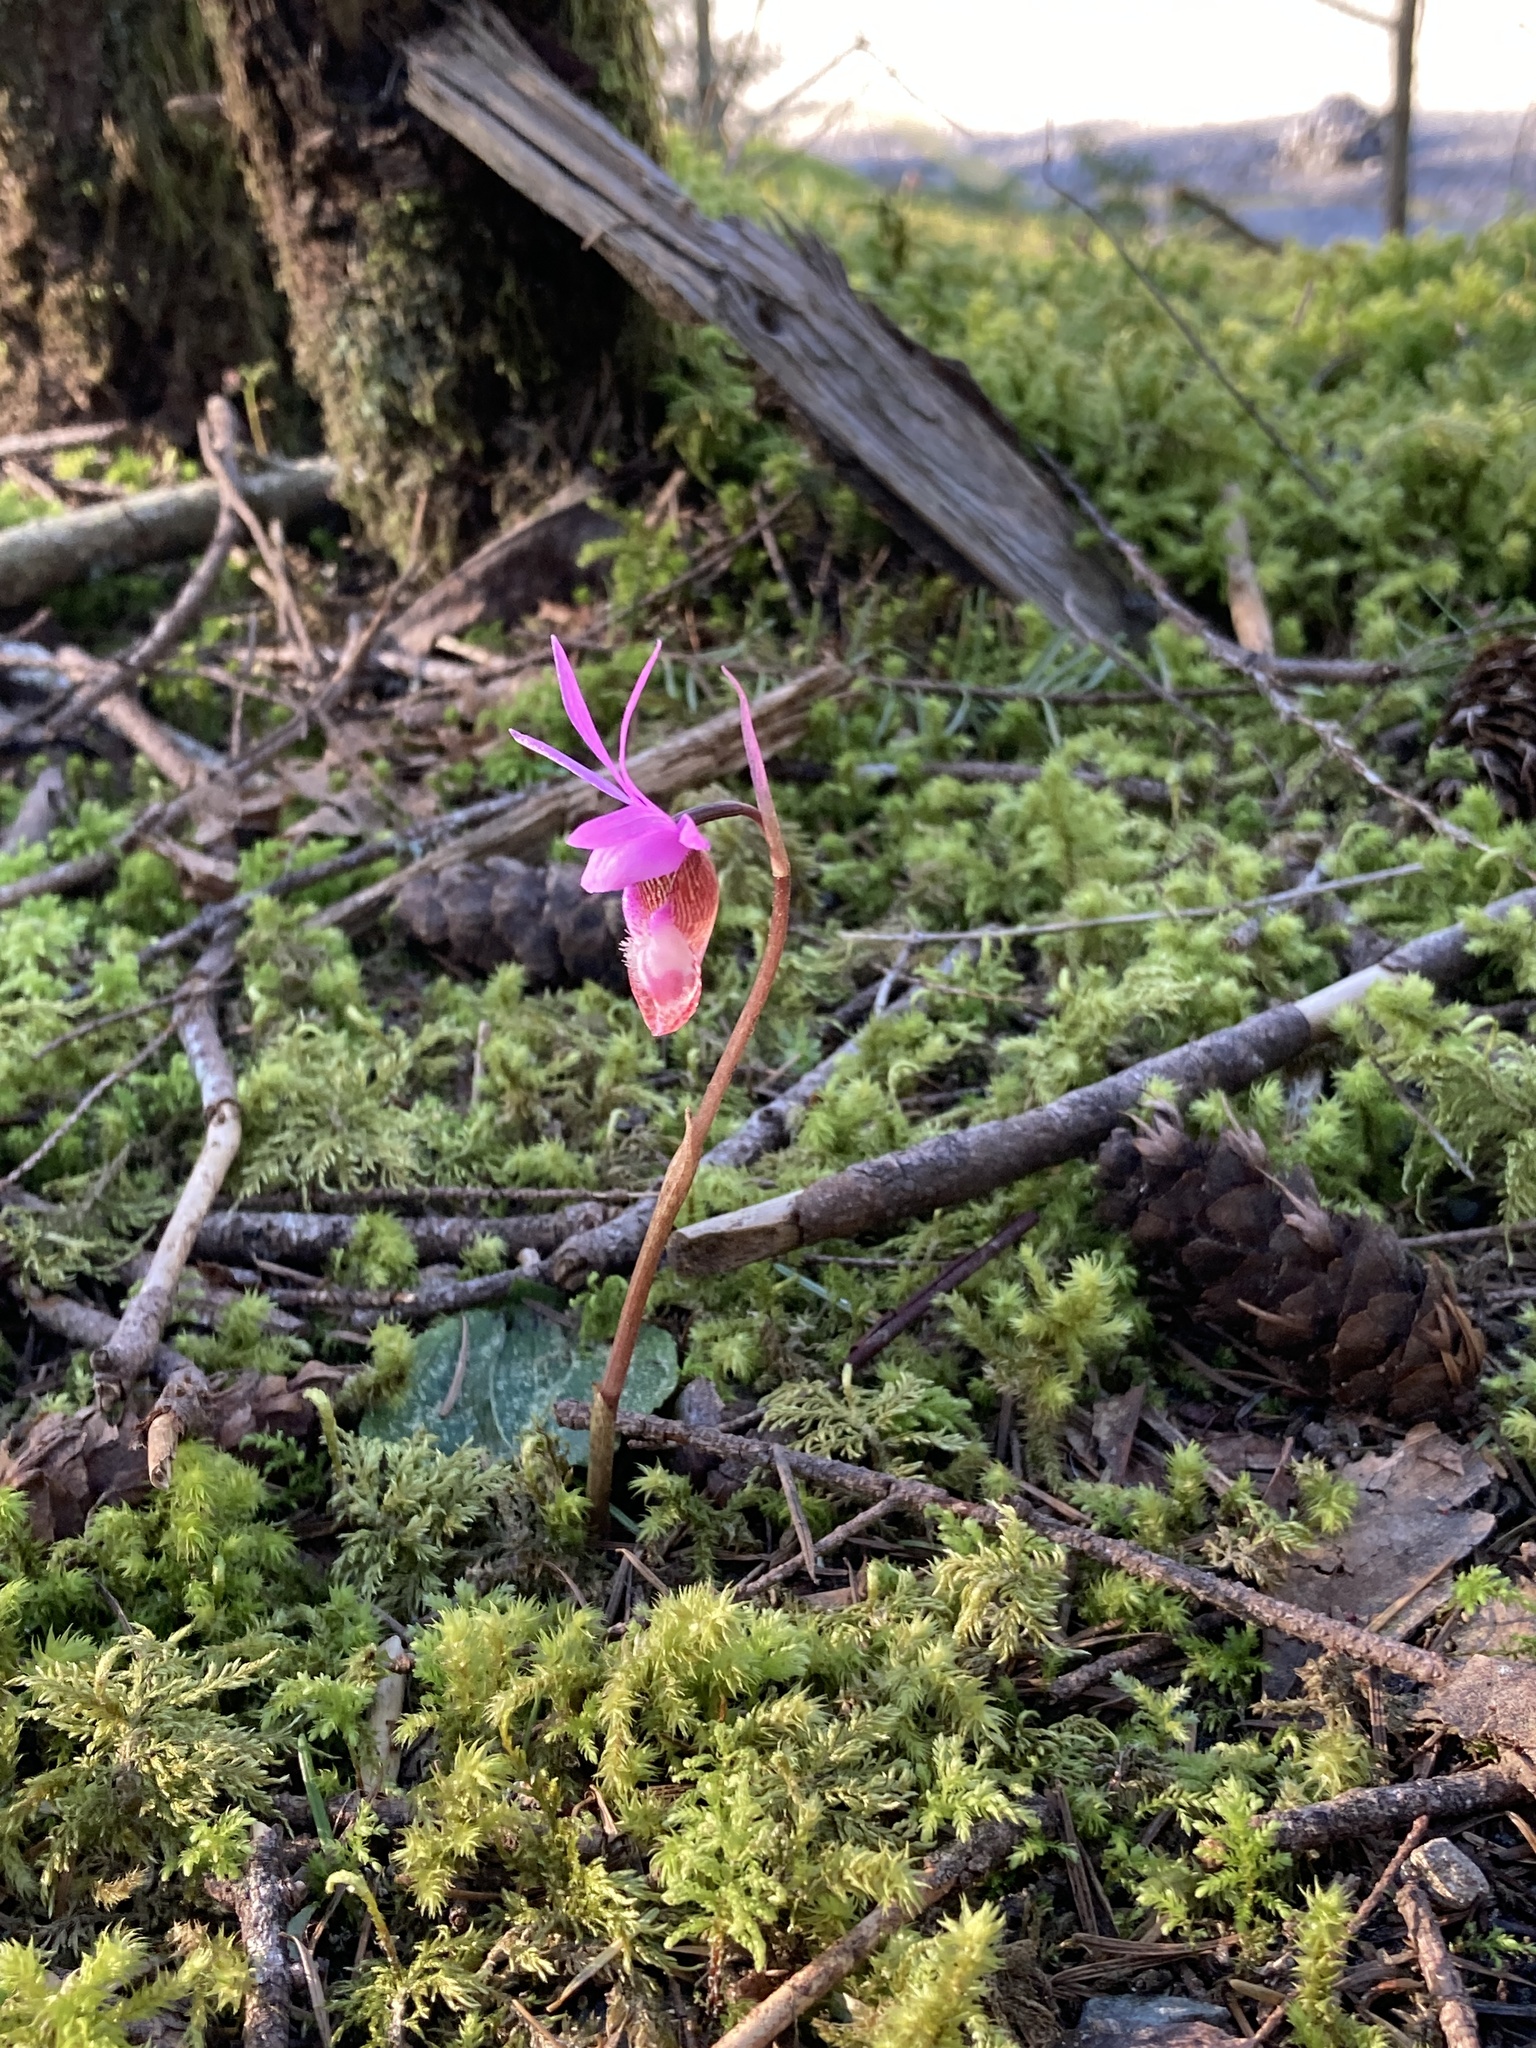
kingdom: Plantae
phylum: Tracheophyta
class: Liliopsida
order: Asparagales
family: Orchidaceae
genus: Calypso
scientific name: Calypso bulbosa
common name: Calypso
